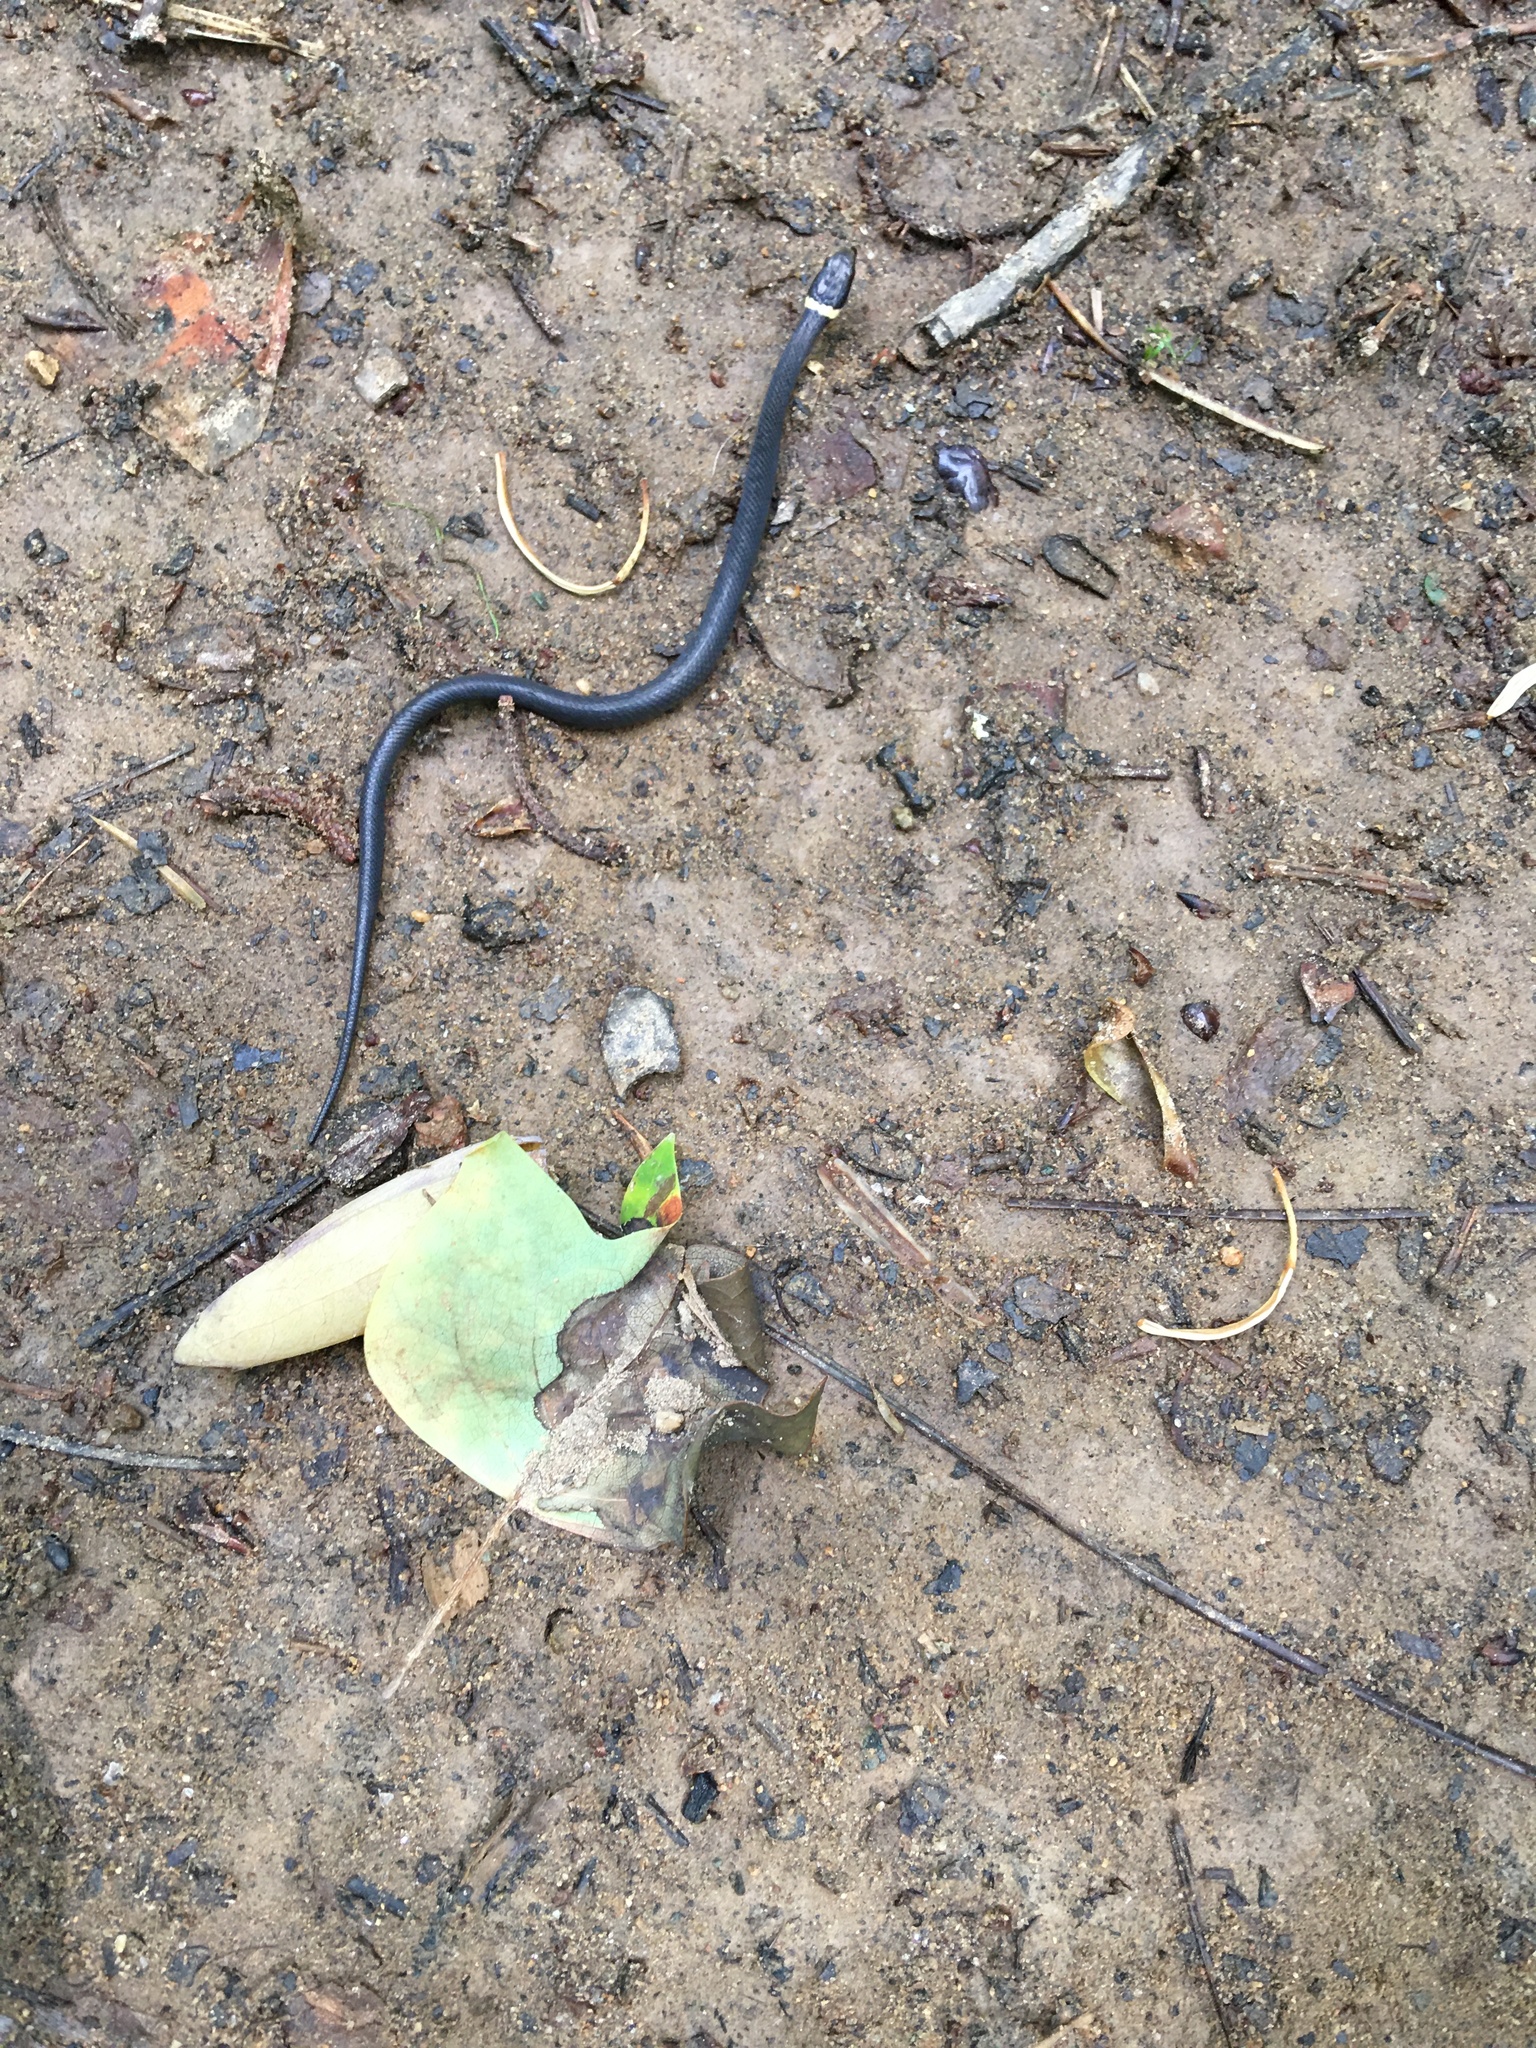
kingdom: Animalia
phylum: Chordata
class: Squamata
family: Colubridae
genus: Diadophis
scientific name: Diadophis punctatus
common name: Ringneck snake
